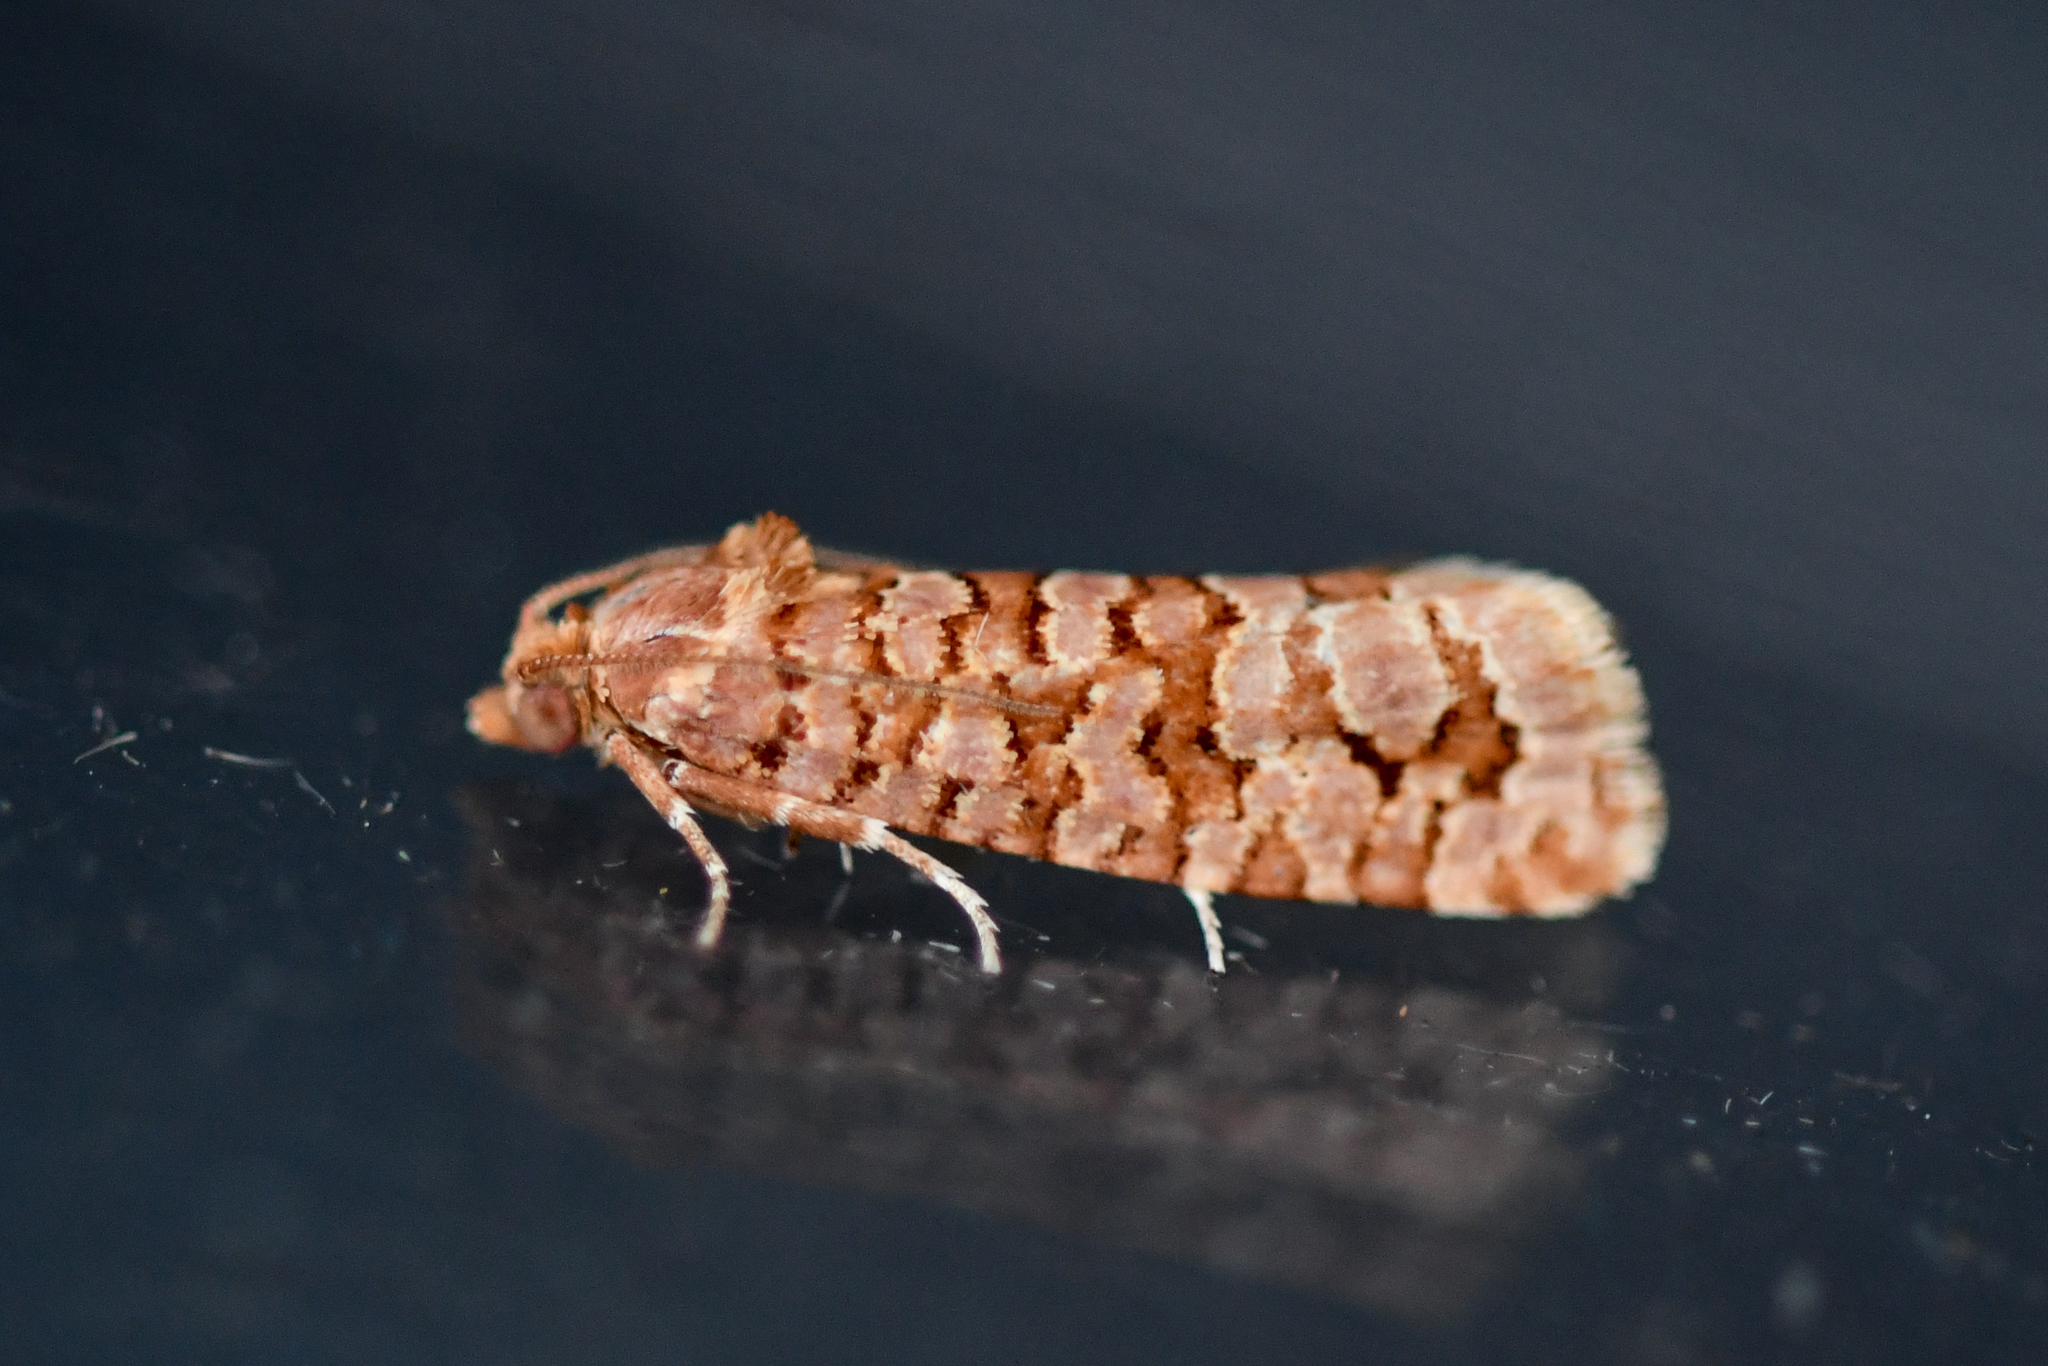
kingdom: Animalia
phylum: Arthropoda
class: Insecta
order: Lepidoptera
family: Tortricidae
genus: Lozotaeniodes
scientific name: Lozotaeniodes formosana
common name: Orange pine twist
